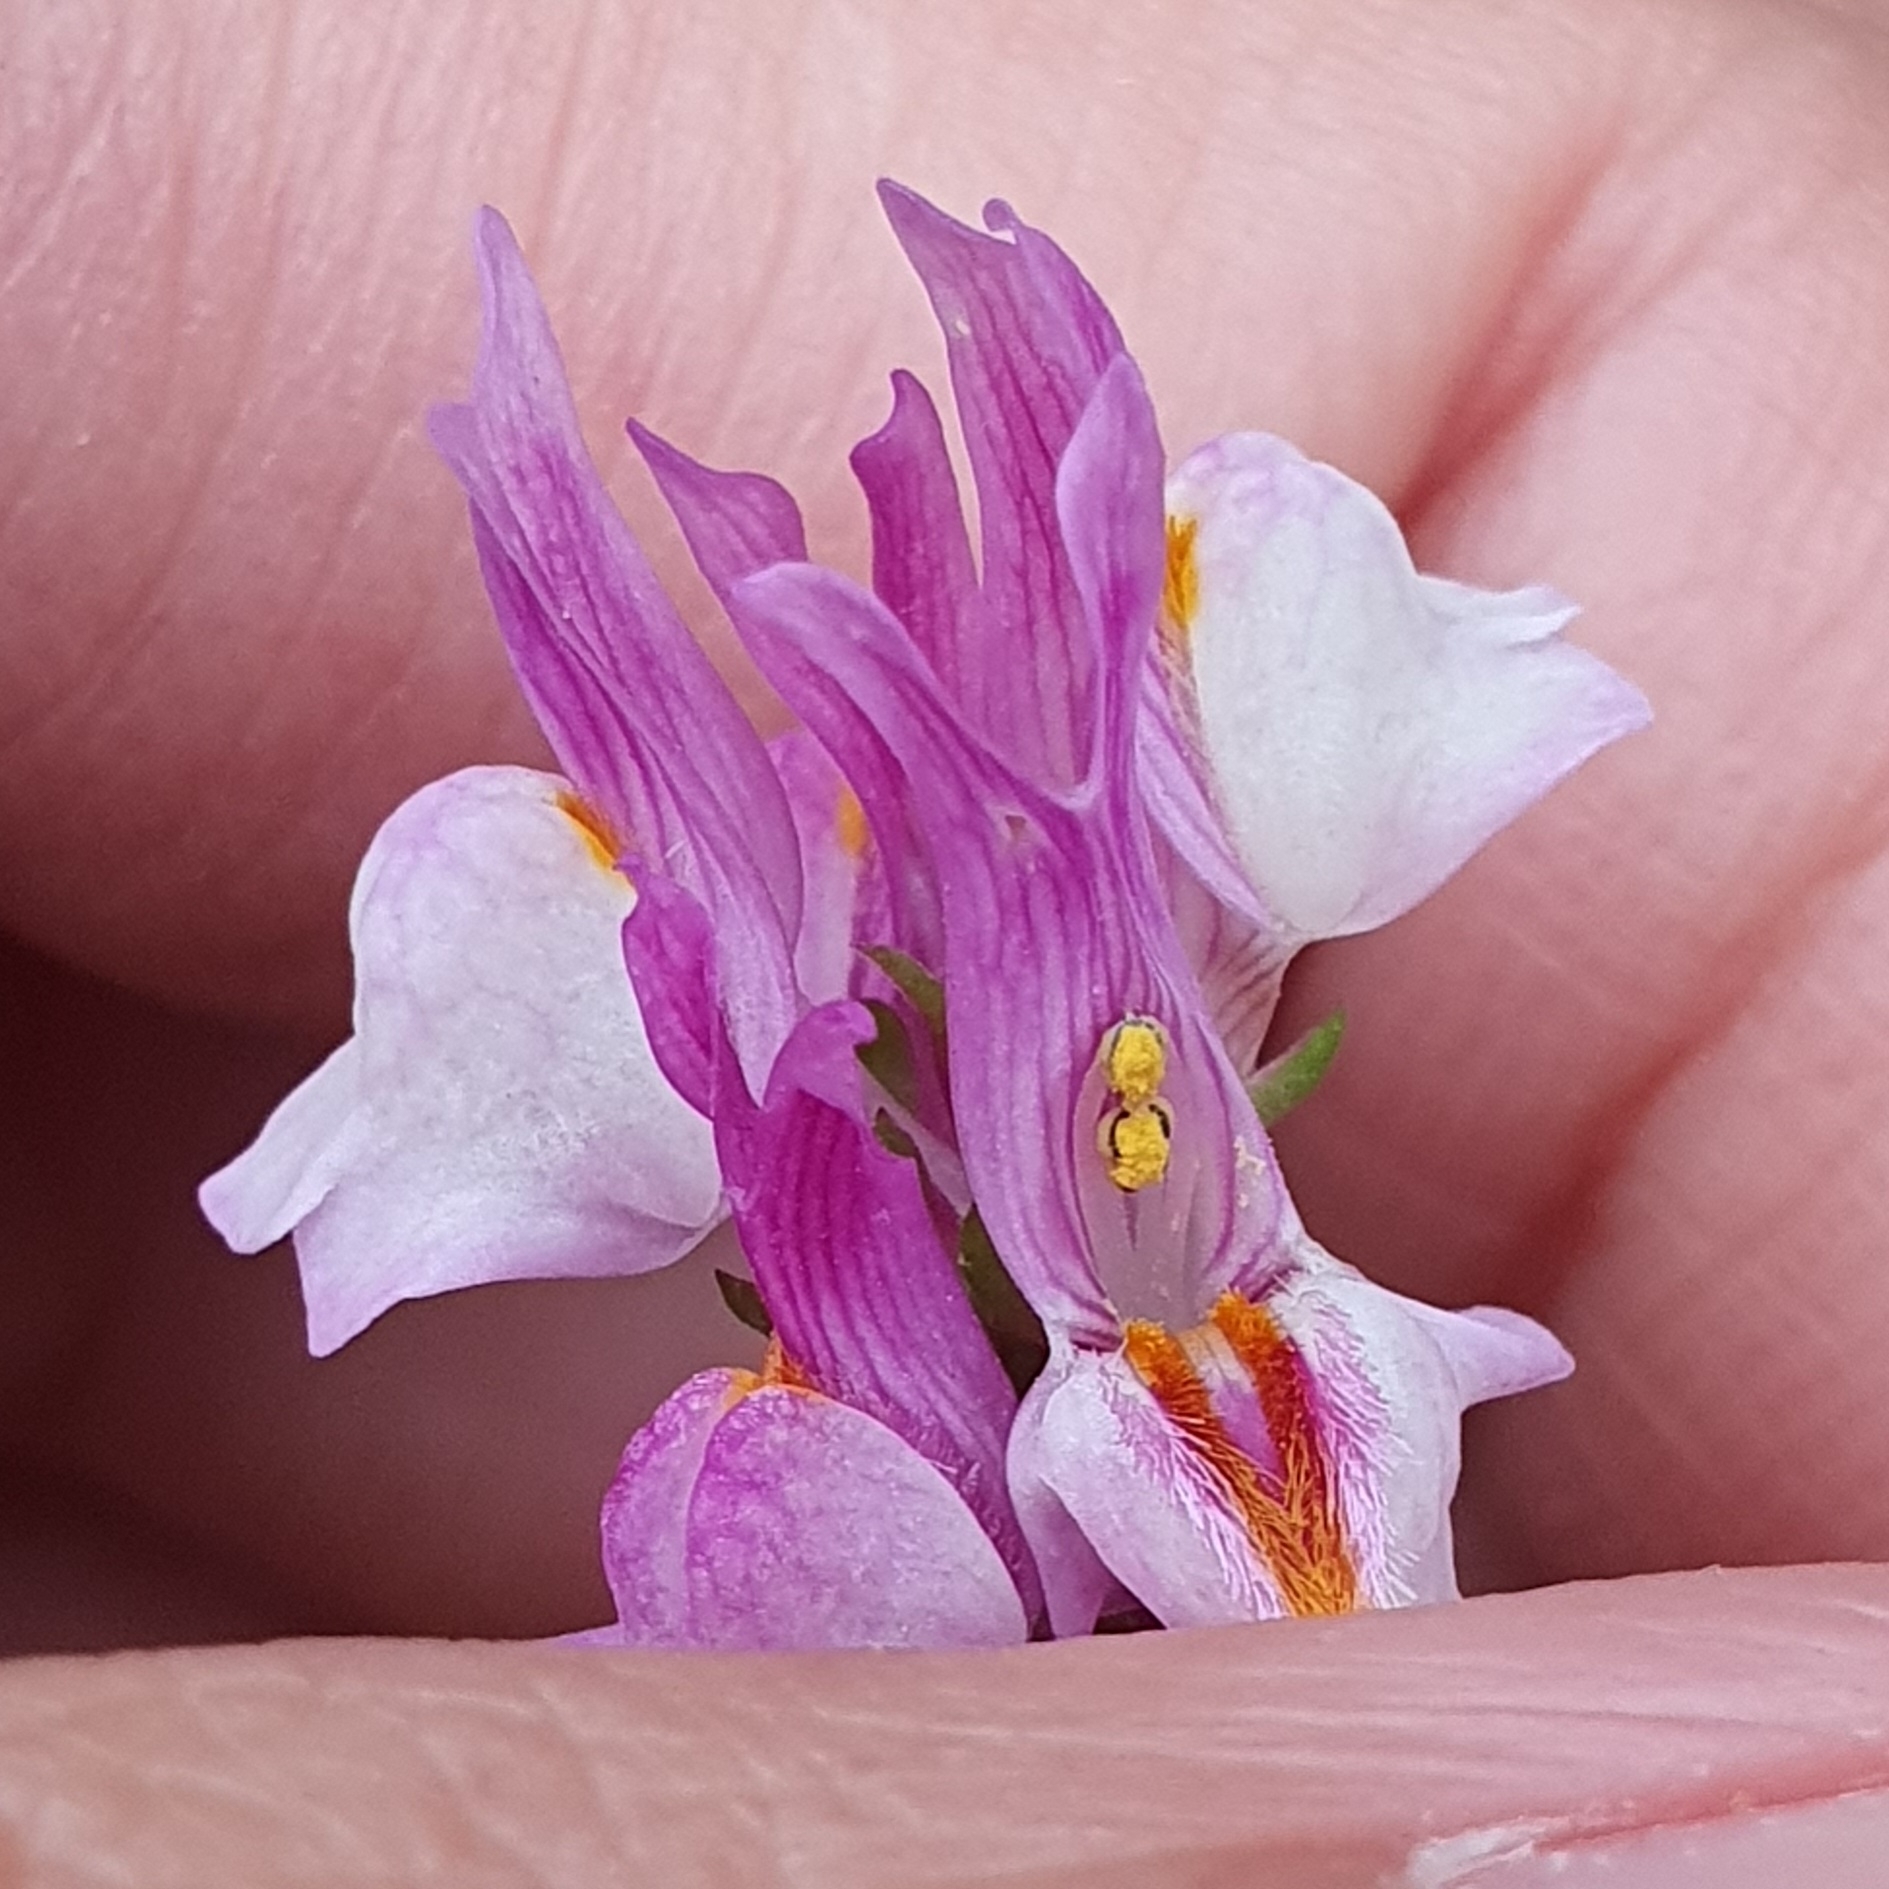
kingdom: Plantae
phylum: Tracheophyta
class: Magnoliopsida
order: Lamiales
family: Plantaginaceae
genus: Linaria
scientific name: Linaria reflexa
